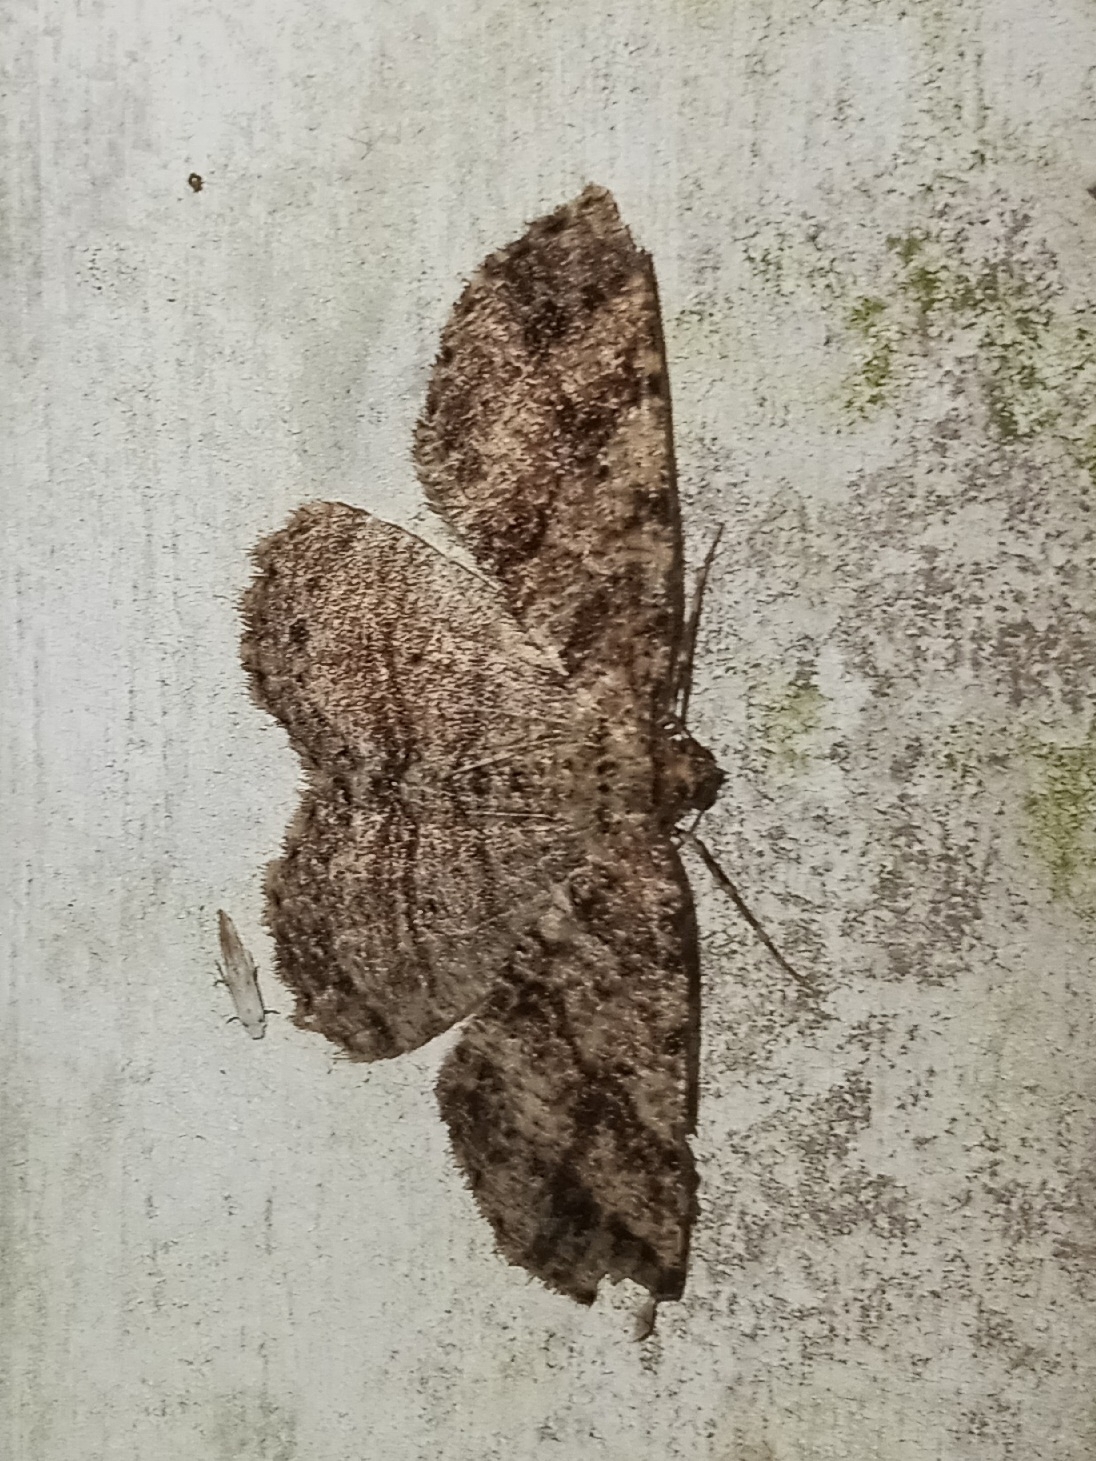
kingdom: Animalia
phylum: Arthropoda
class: Insecta
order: Lepidoptera
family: Geometridae
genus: Melanolophia
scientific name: Melanolophia canadaria
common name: Canadian melanolophia
